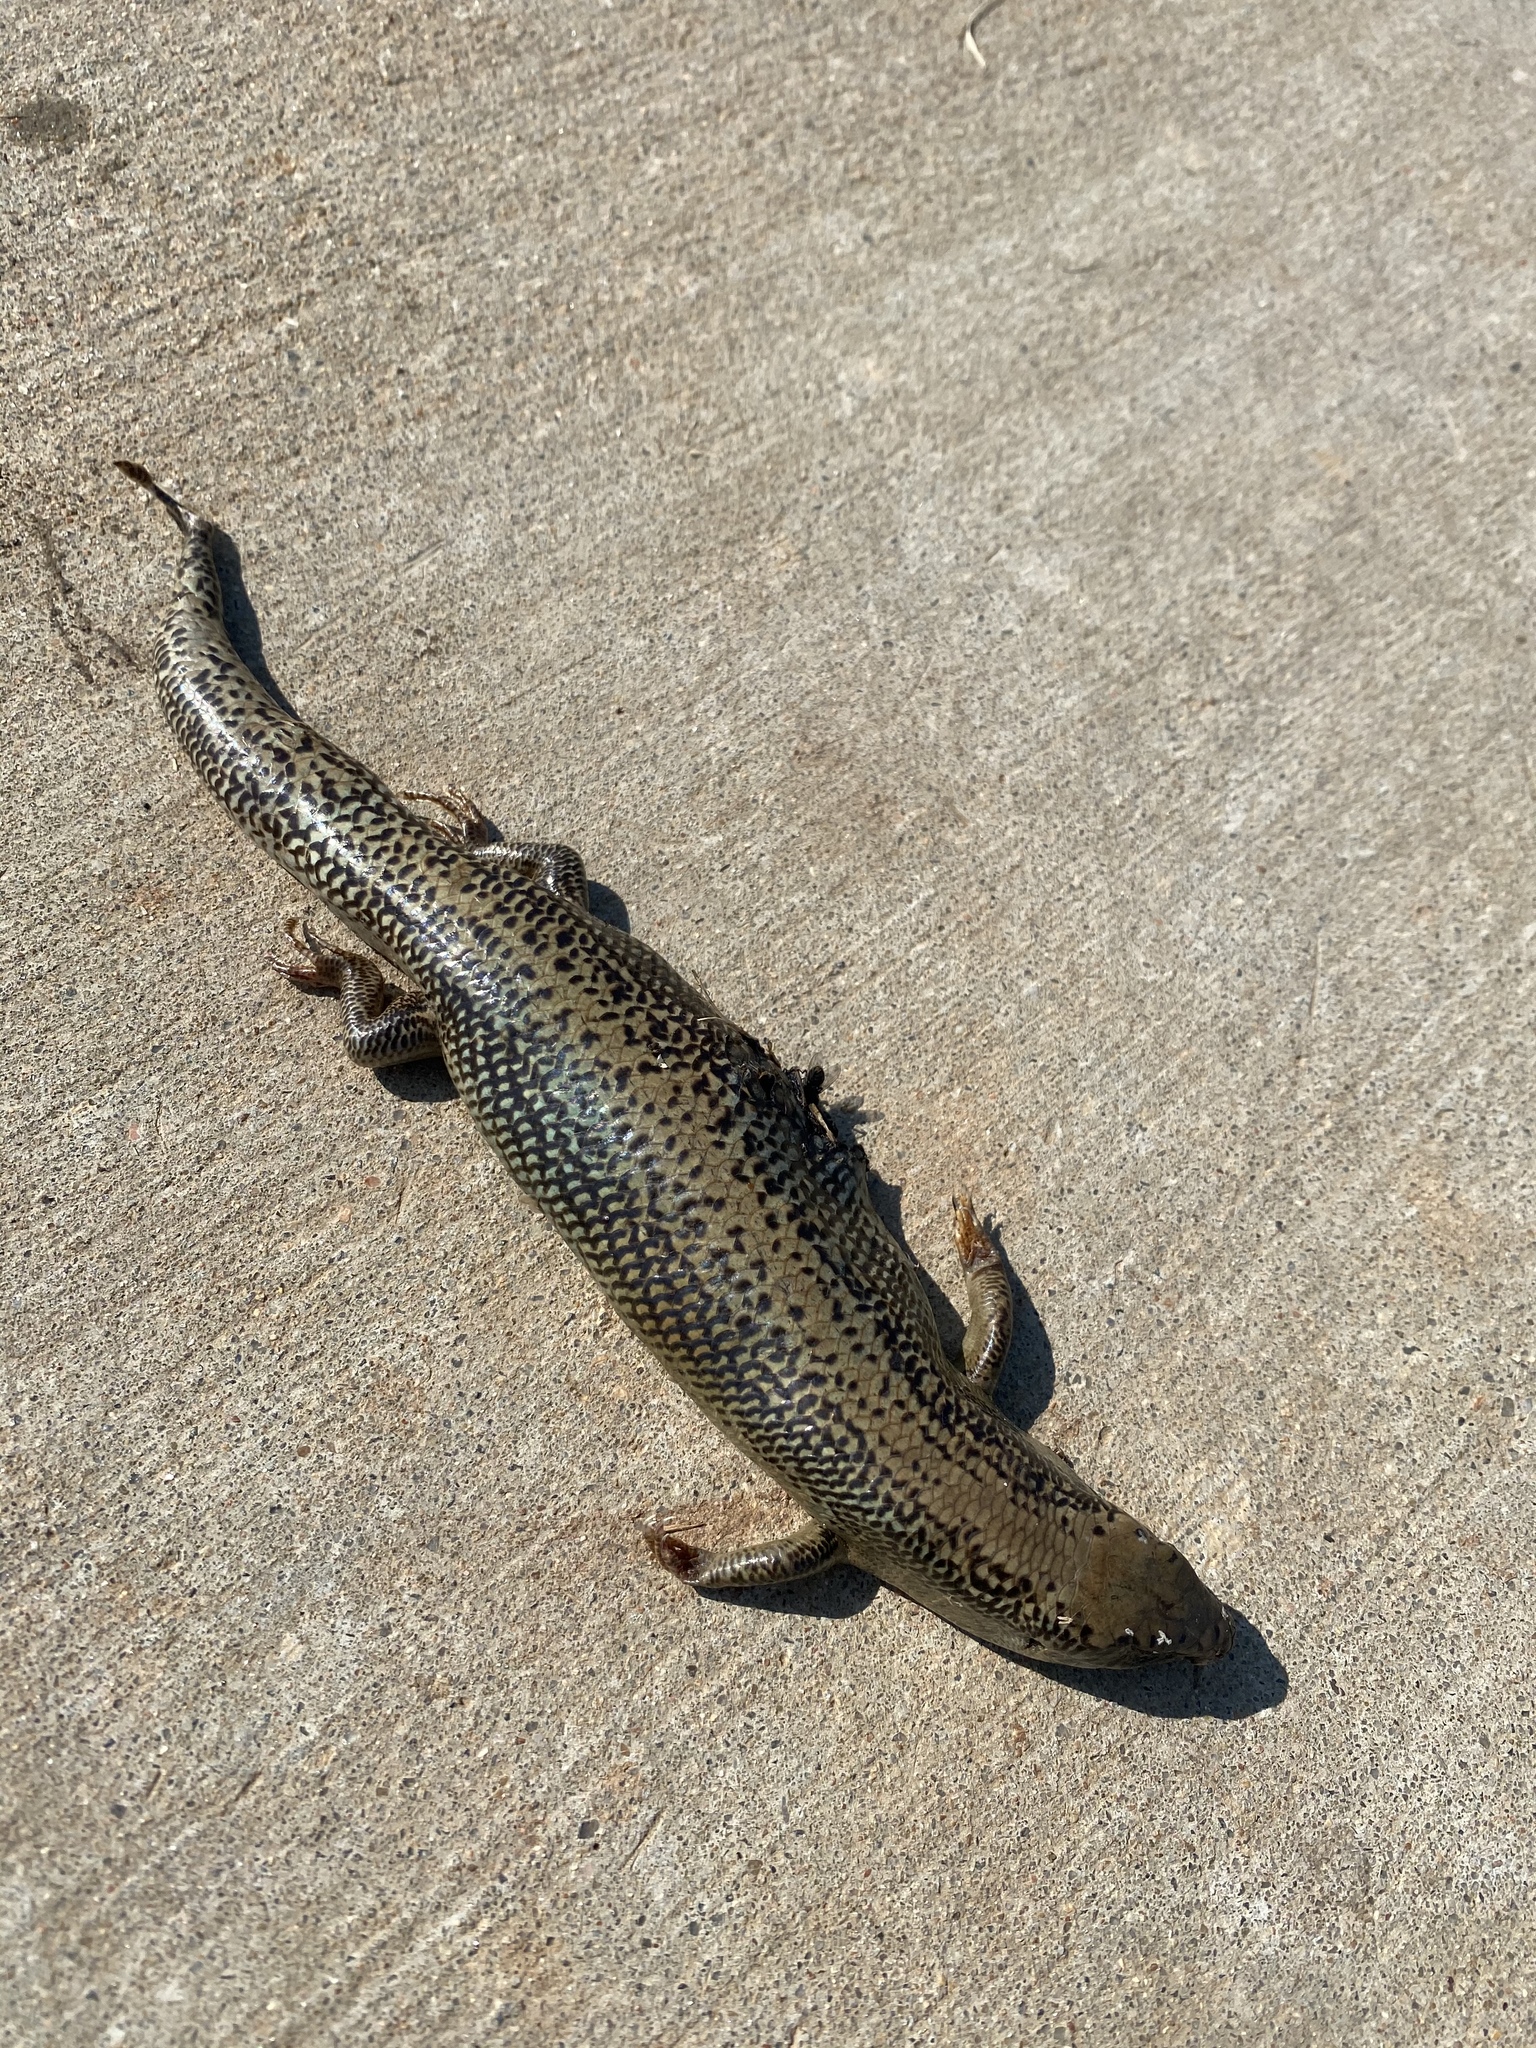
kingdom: Animalia
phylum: Chordata
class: Squamata
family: Scincidae
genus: Plestiodon
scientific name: Plestiodon obsoletus
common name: Great plains skink
